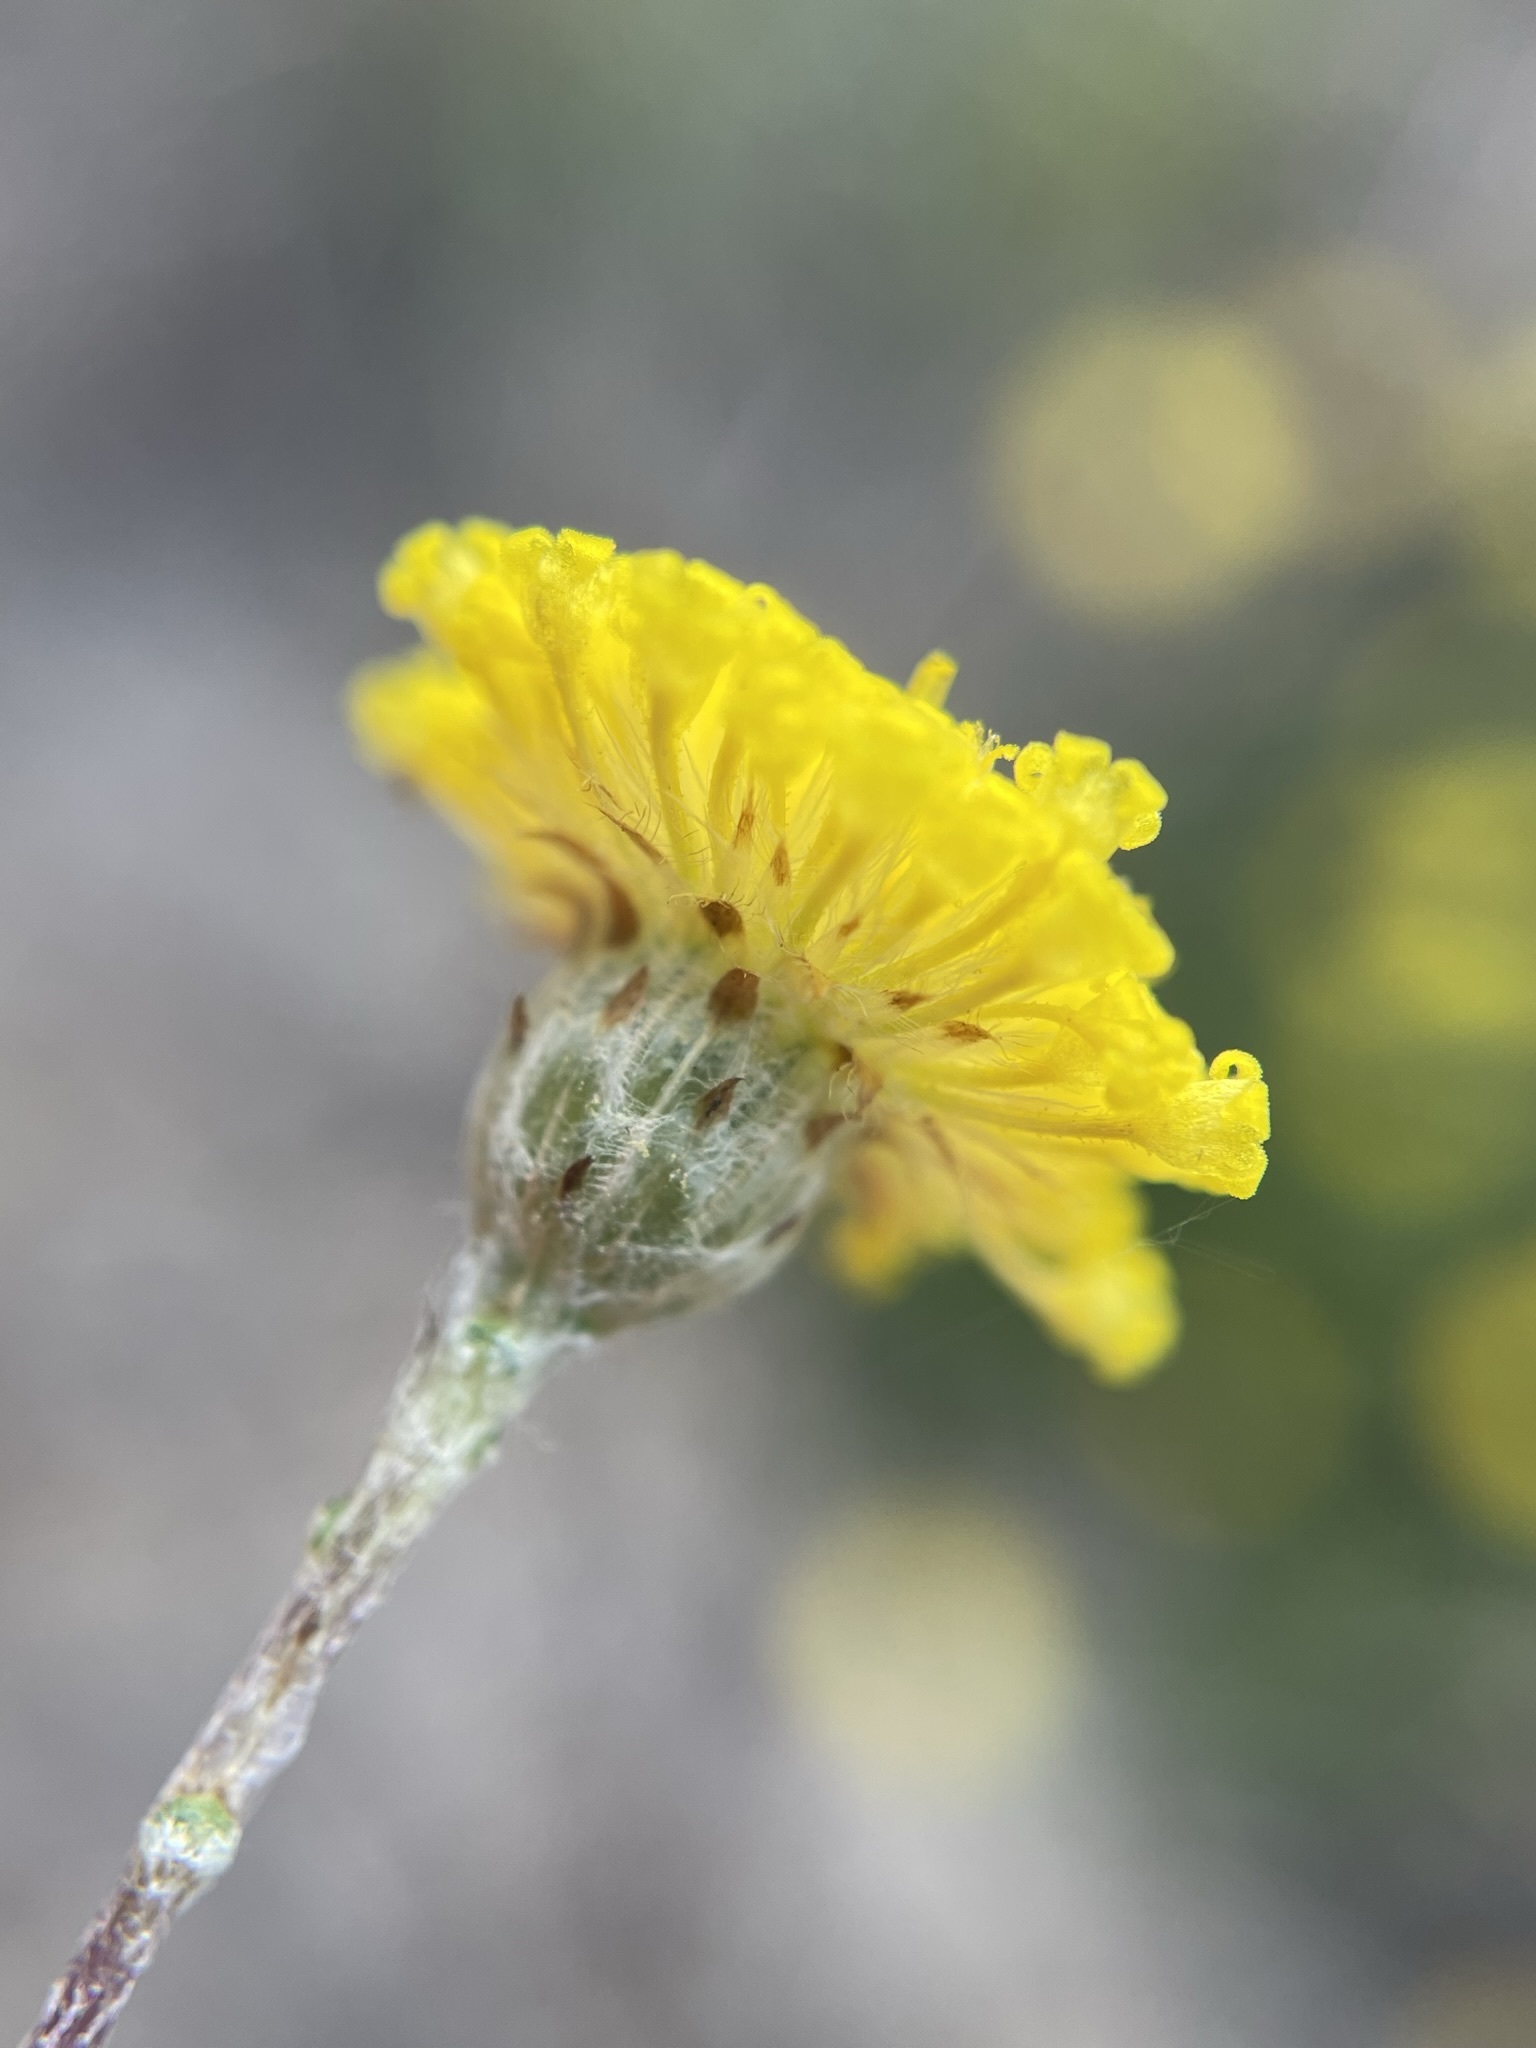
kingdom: Plantae
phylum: Tracheophyta
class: Magnoliopsida
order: Asterales
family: Asteraceae
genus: Leptorhynchos
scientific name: Leptorhynchos squamatus
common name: Scaly-buttons
